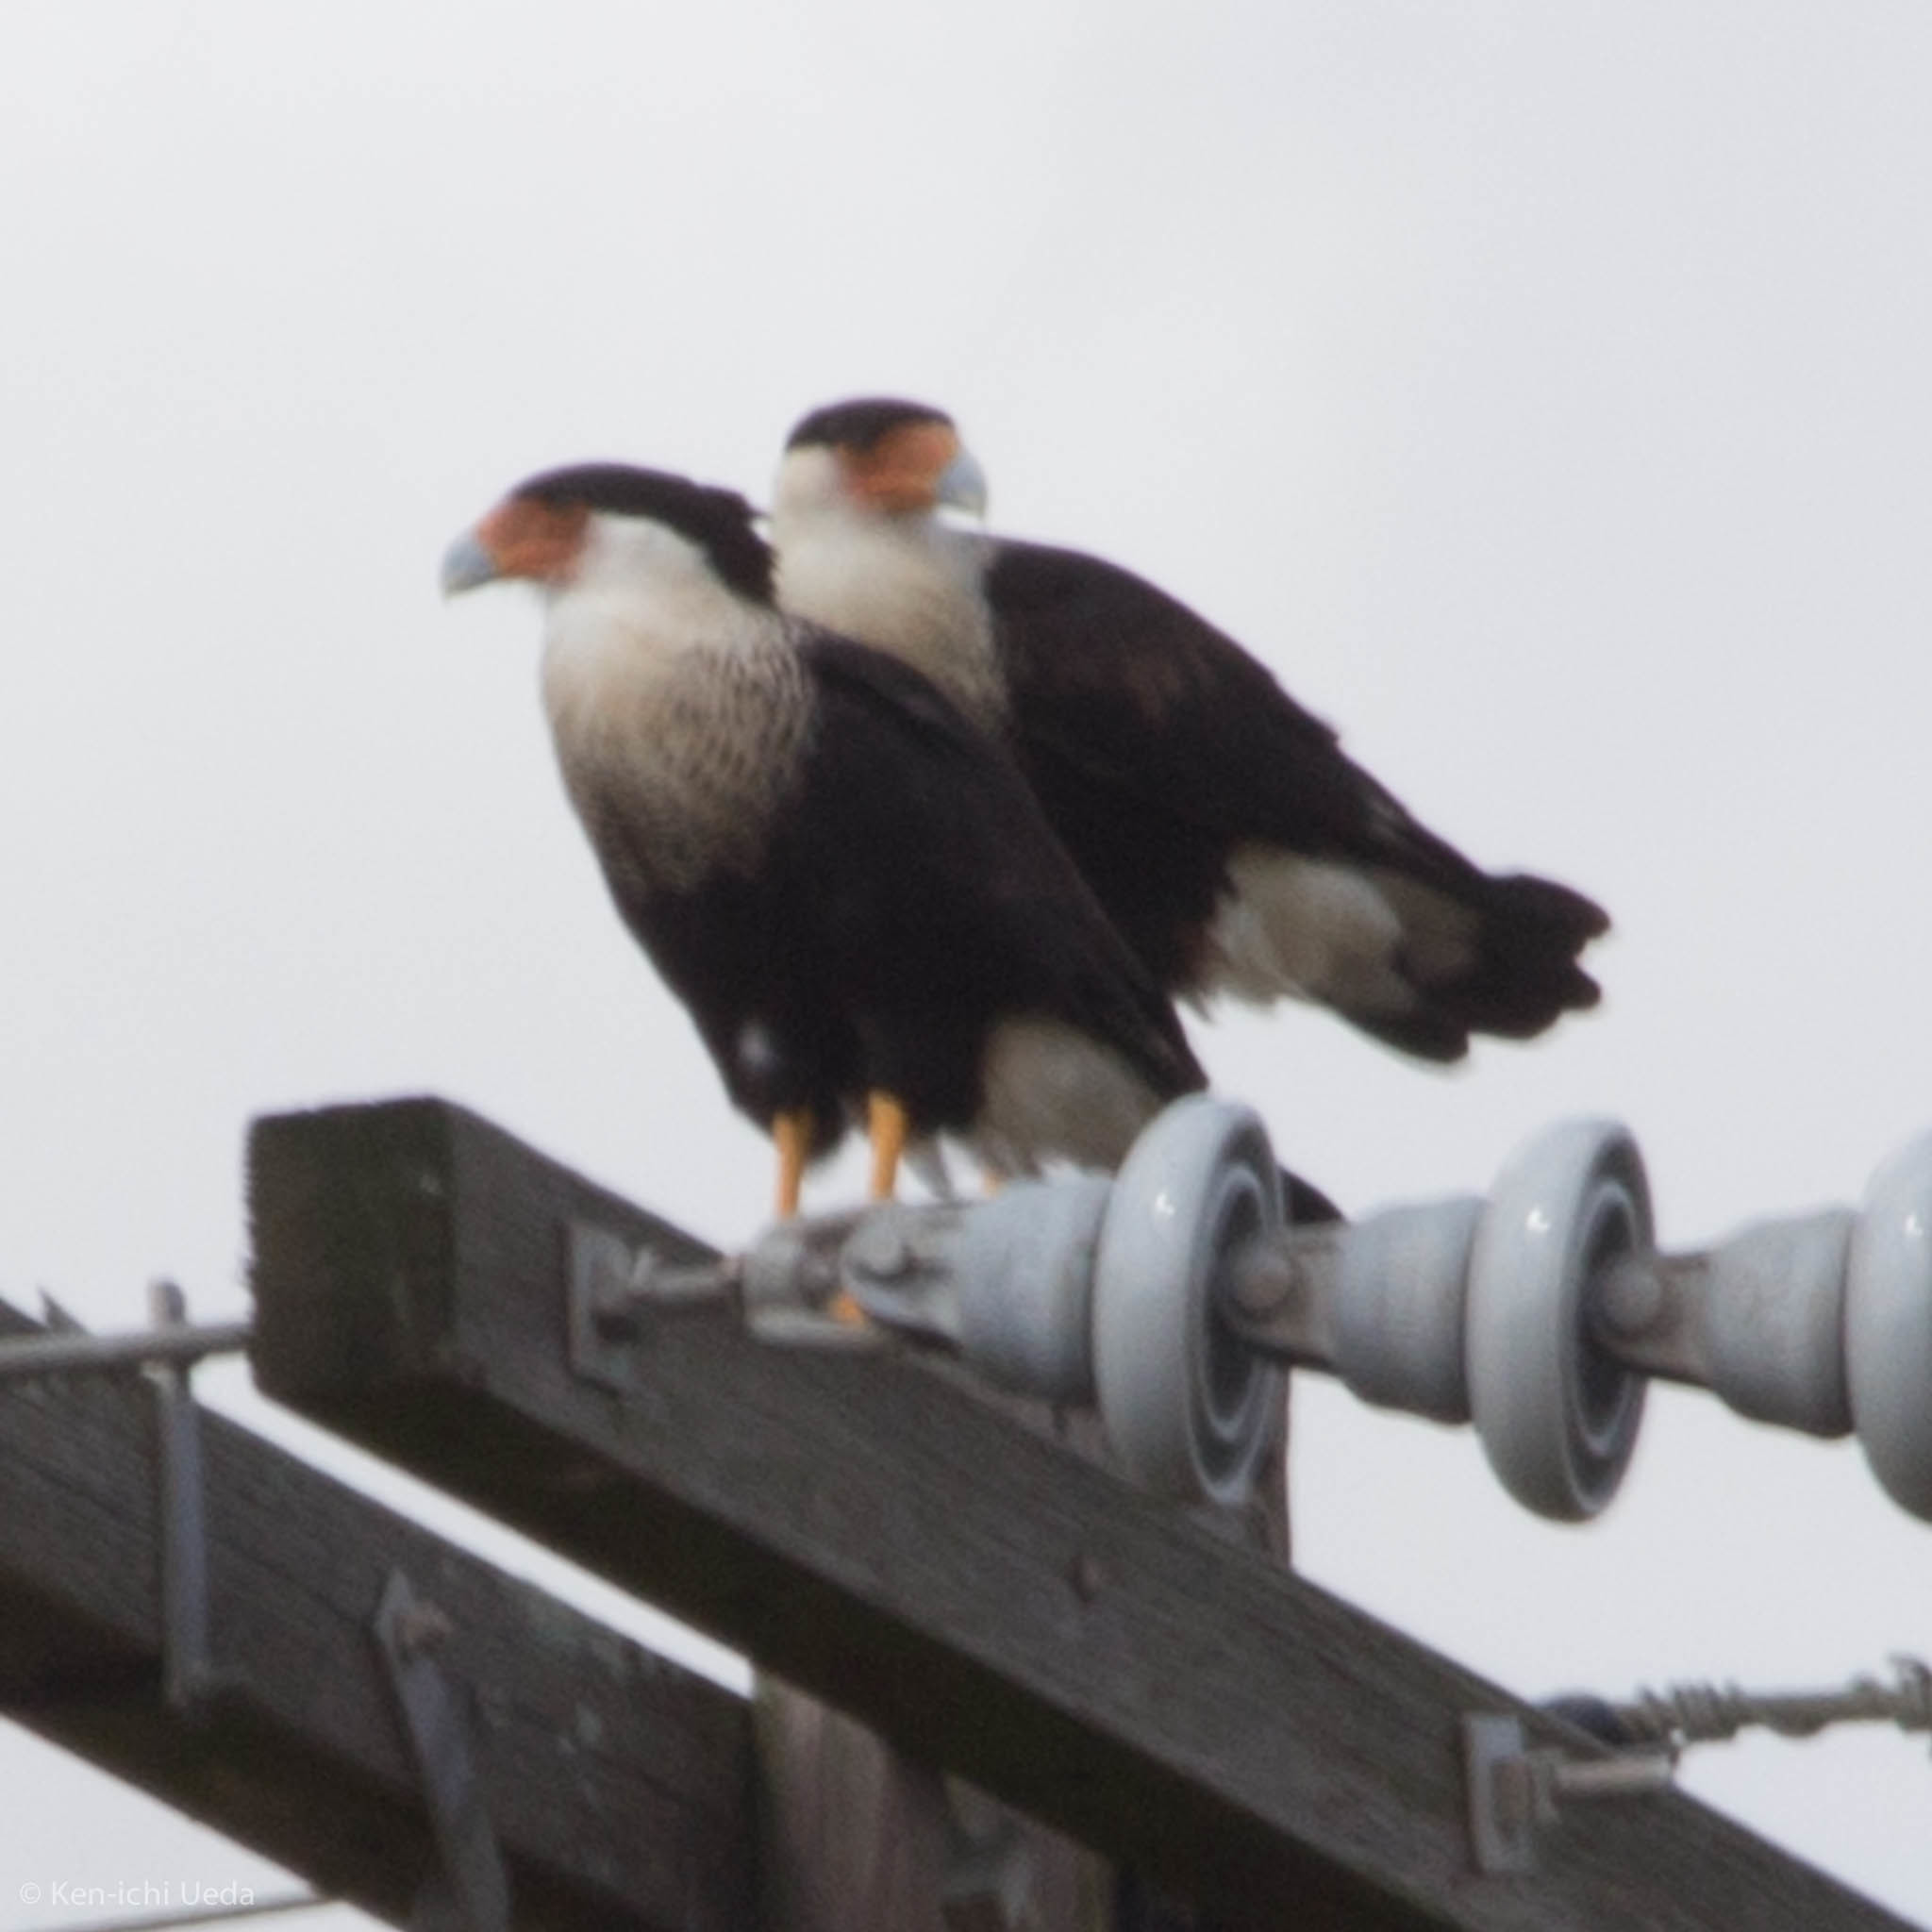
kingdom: Animalia
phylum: Chordata
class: Aves
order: Falconiformes
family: Falconidae
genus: Caracara
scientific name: Caracara plancus
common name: Southern caracara
